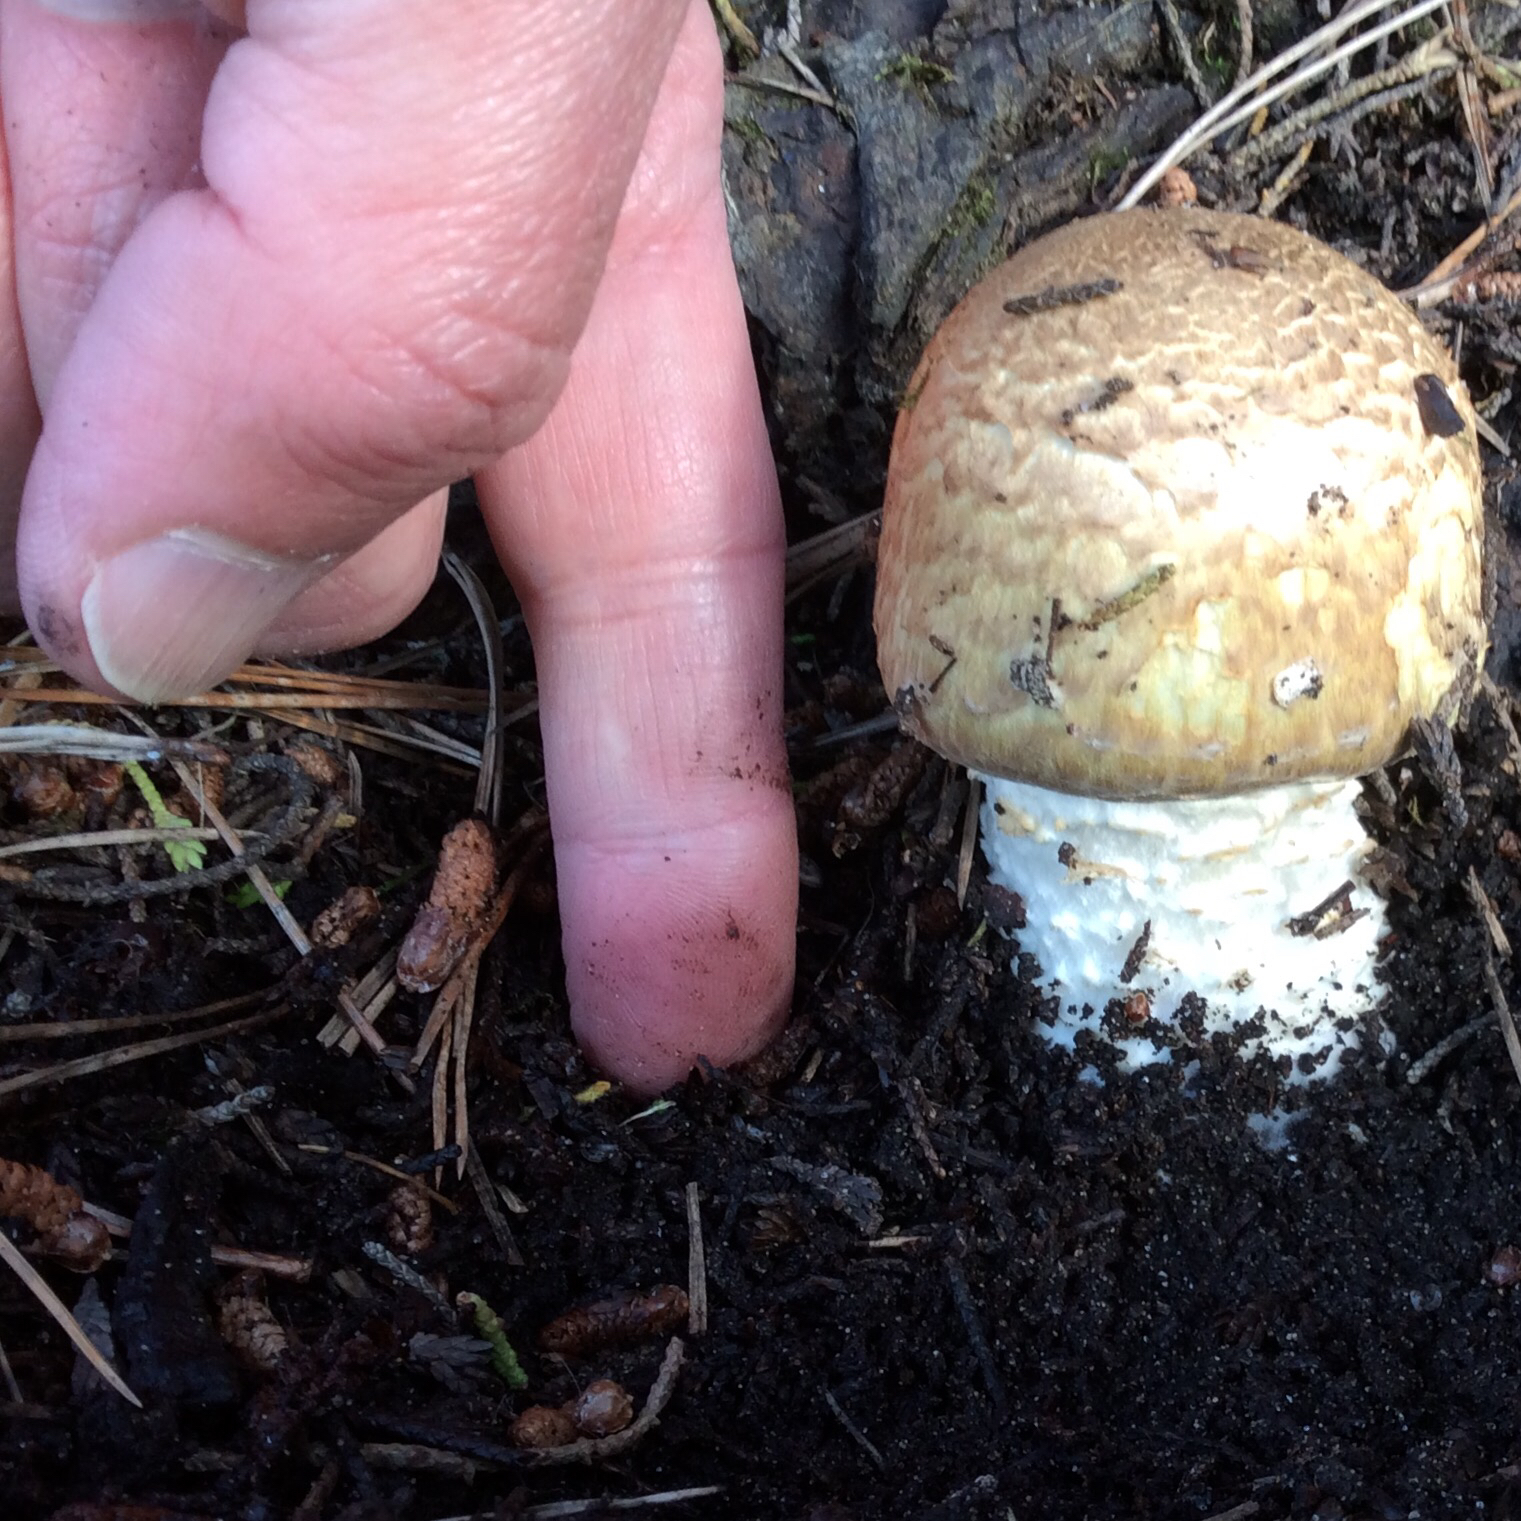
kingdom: Fungi
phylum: Basidiomycota
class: Agaricomycetes
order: Agaricales
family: Agaricaceae
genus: Agaricus
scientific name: Agaricus augustus
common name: Prince
